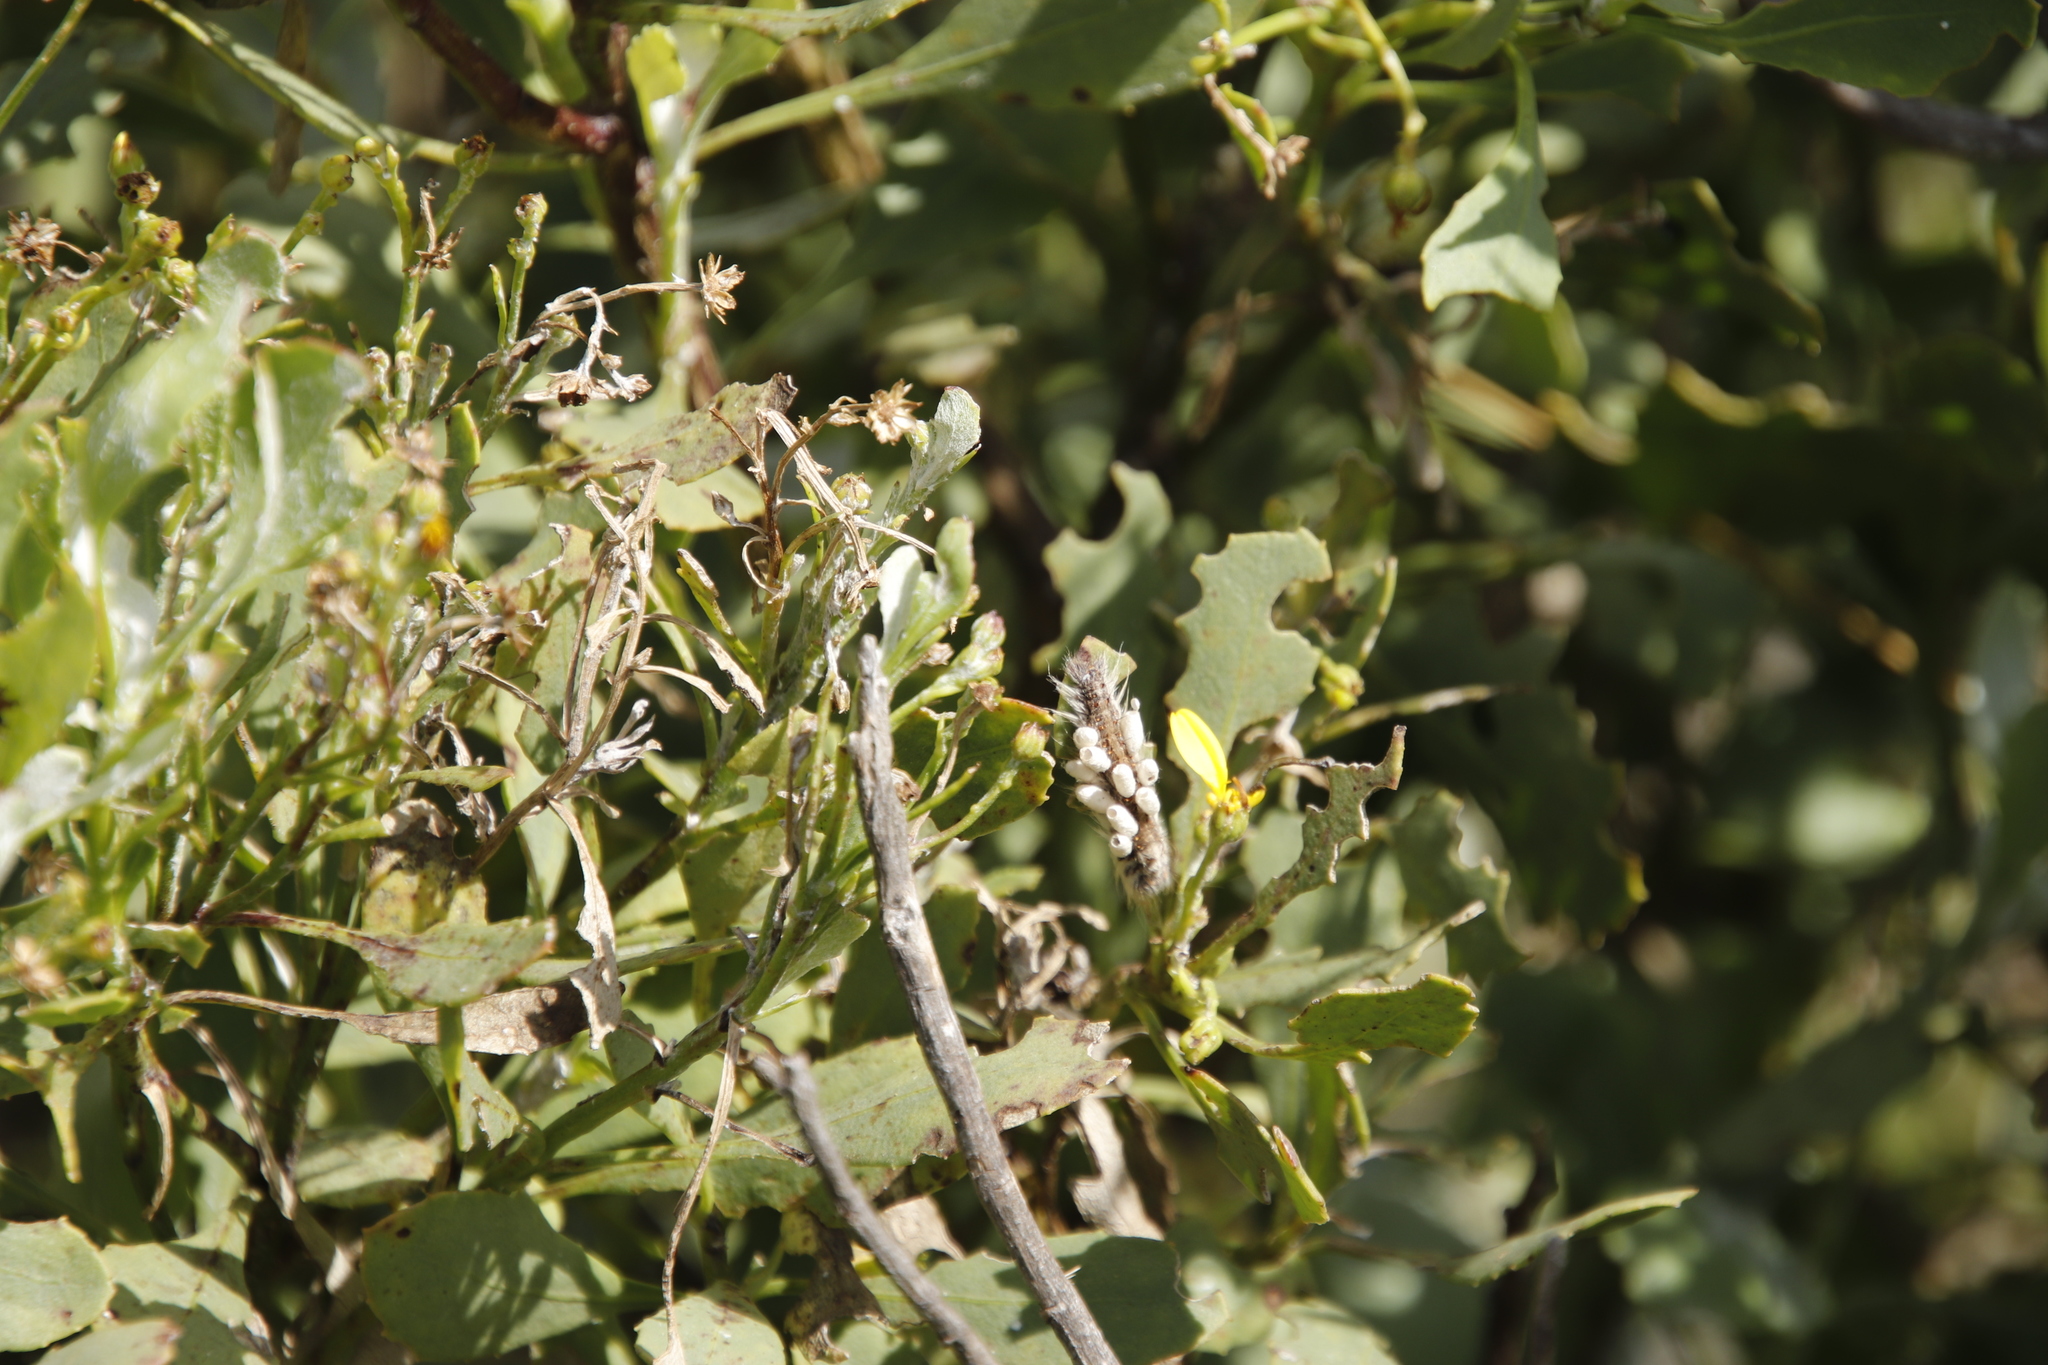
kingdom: Plantae
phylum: Tracheophyta
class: Magnoliopsida
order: Asterales
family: Asteraceae
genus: Osteospermum
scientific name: Osteospermum moniliferum
